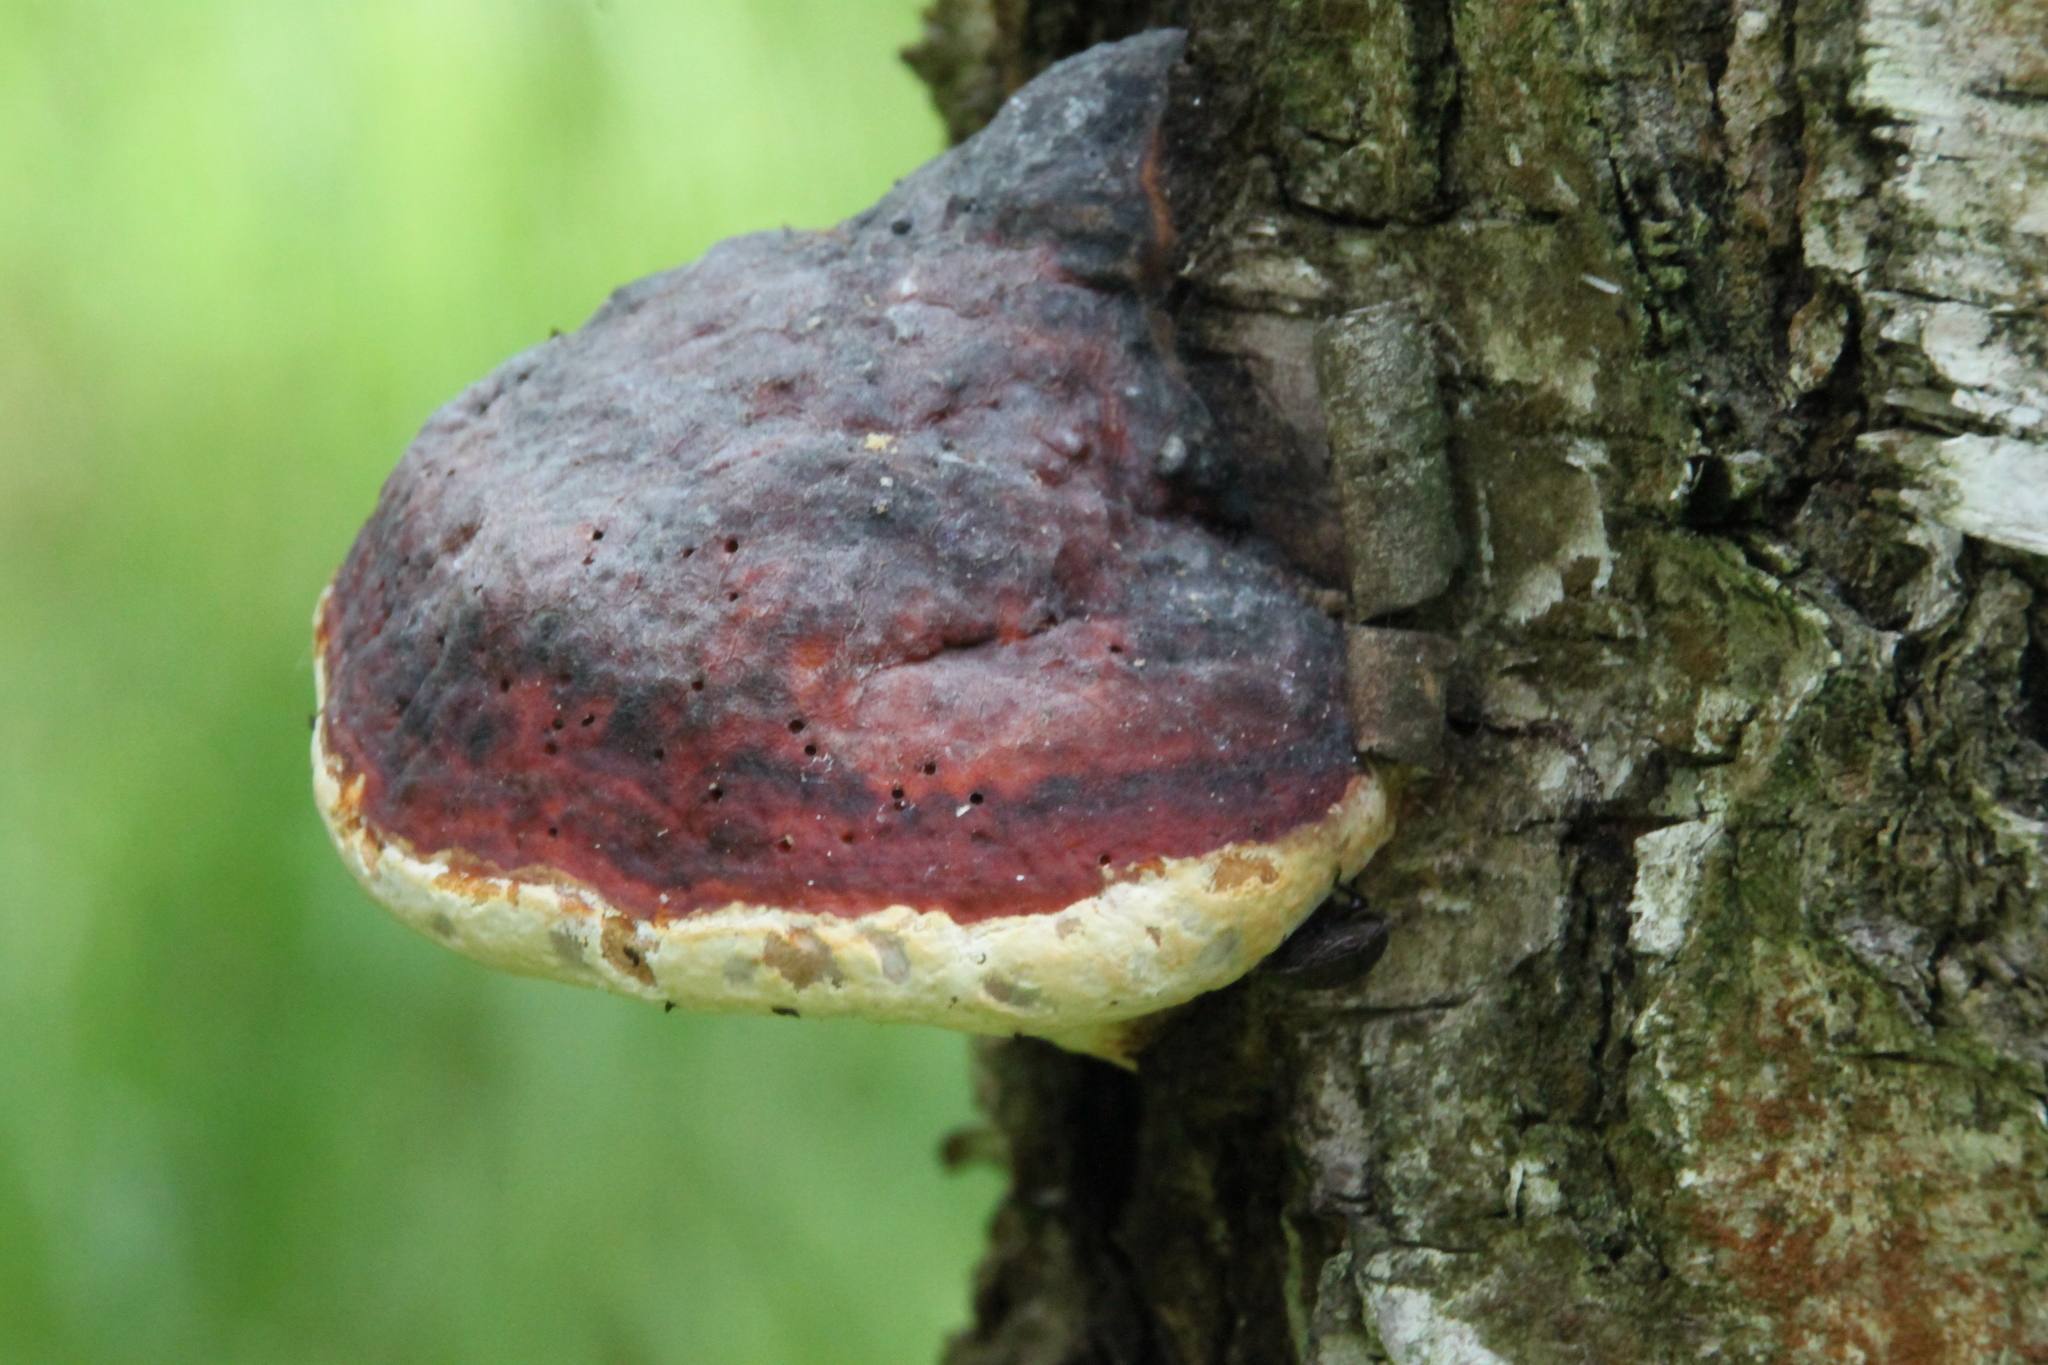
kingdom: Fungi
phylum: Basidiomycota
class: Agaricomycetes
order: Polyporales
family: Fomitopsidaceae
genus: Fomitopsis
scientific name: Fomitopsis pinicola
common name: Red-belted bracket
